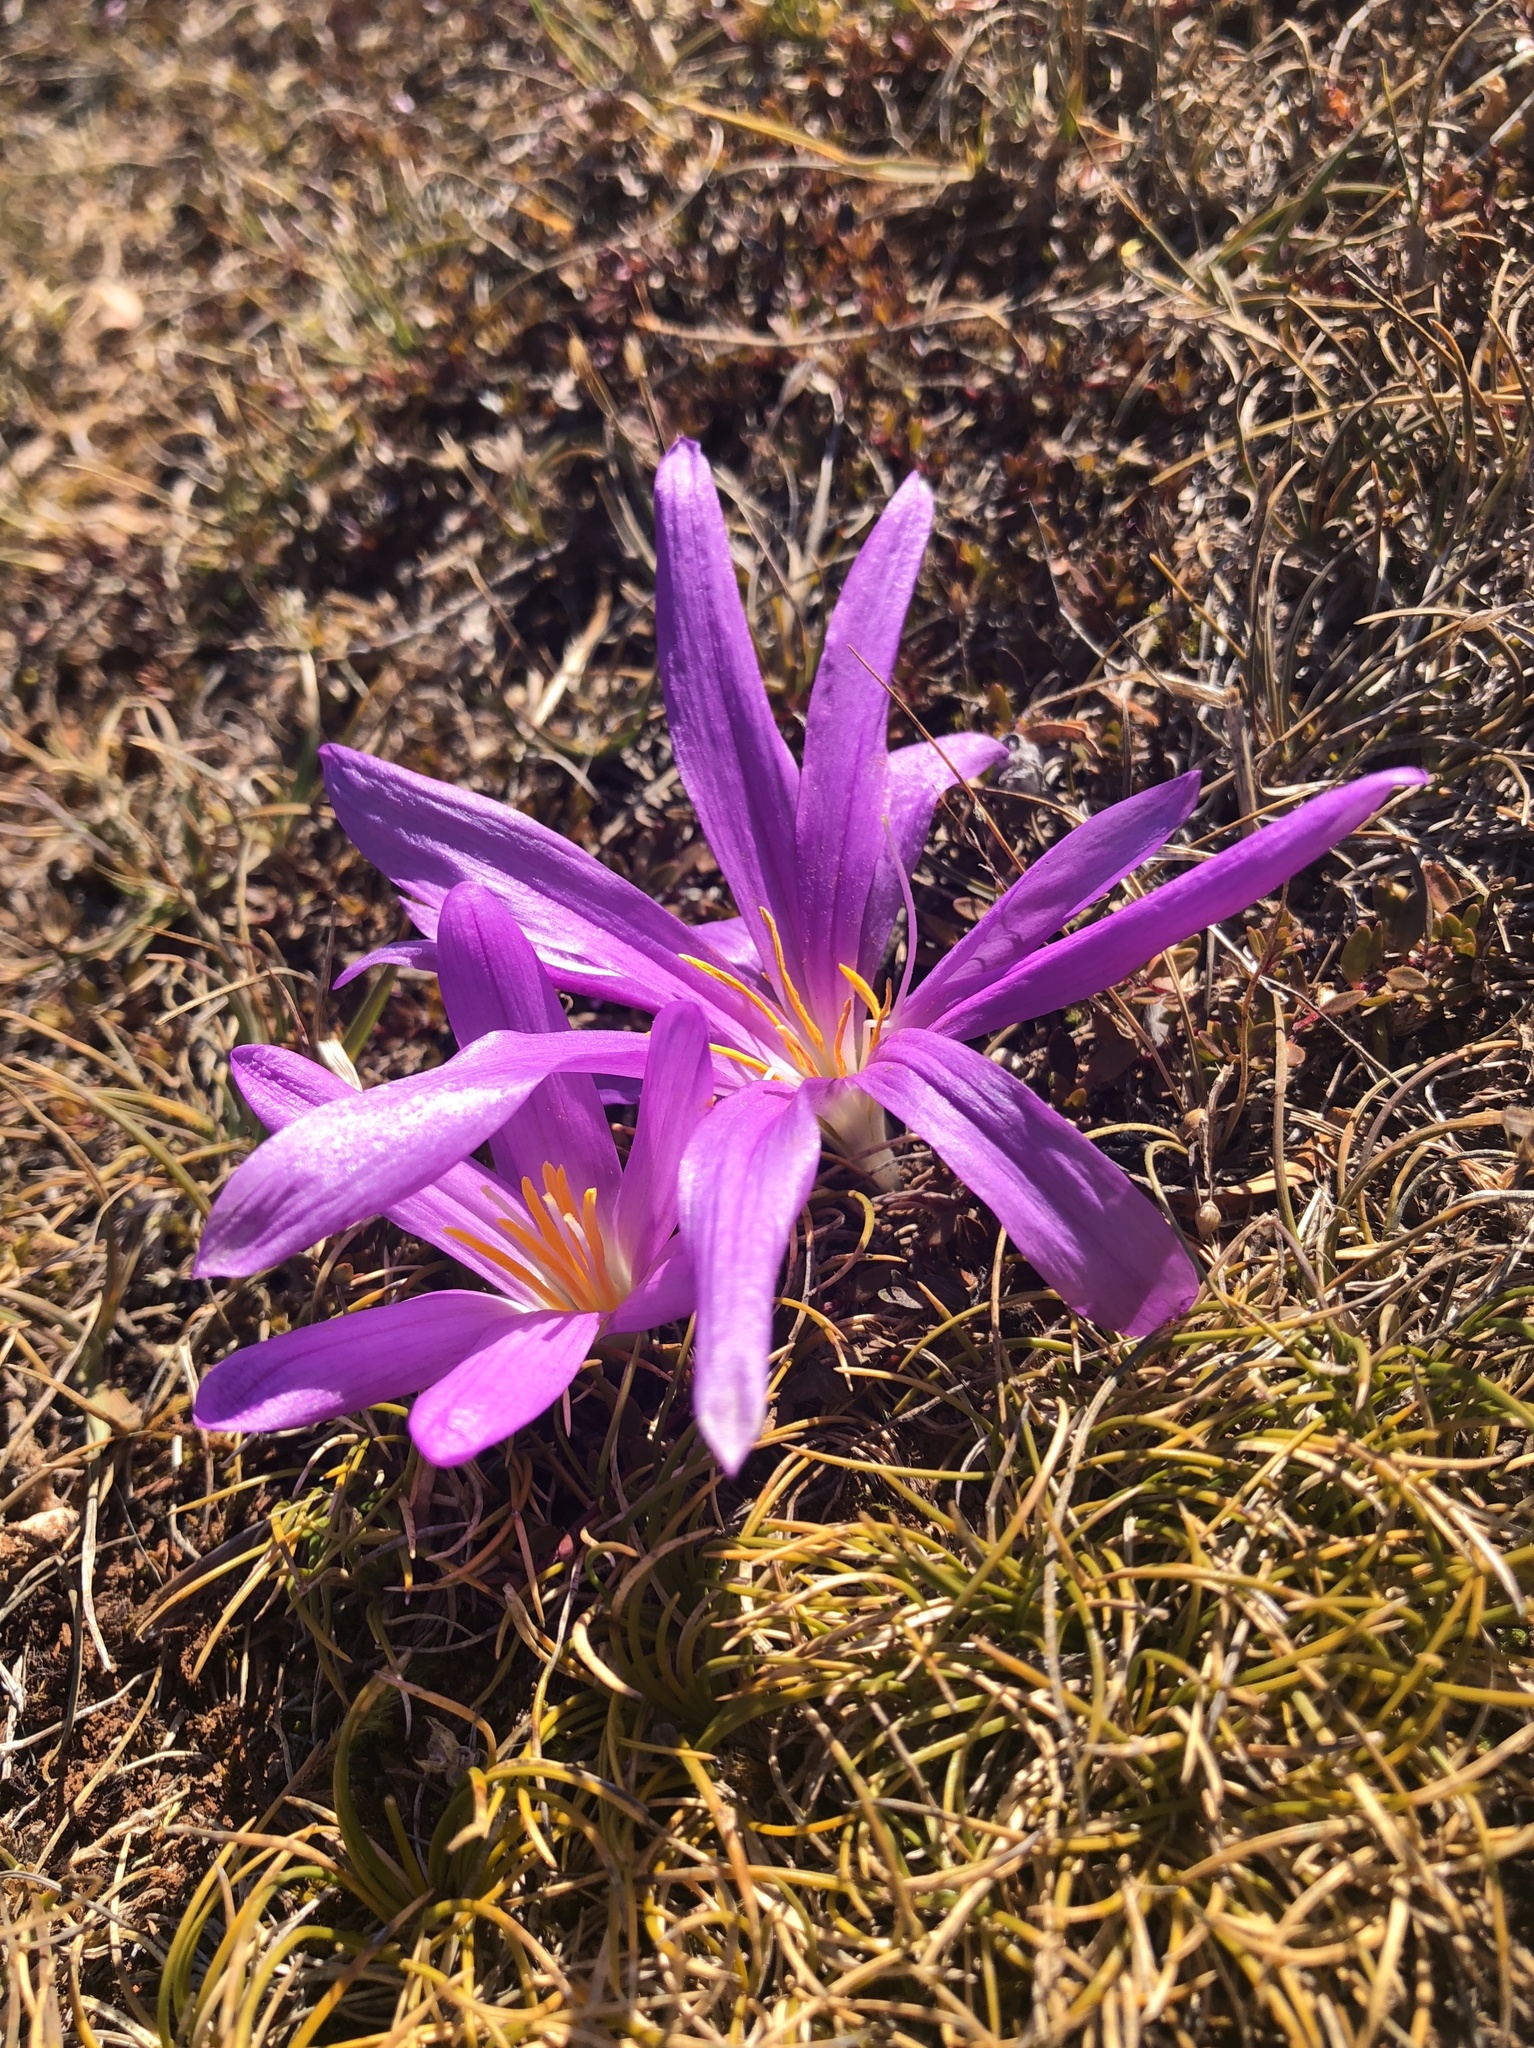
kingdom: Plantae
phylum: Tracheophyta
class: Liliopsida
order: Liliales
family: Colchicaceae
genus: Colchicum
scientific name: Colchicum montanum
